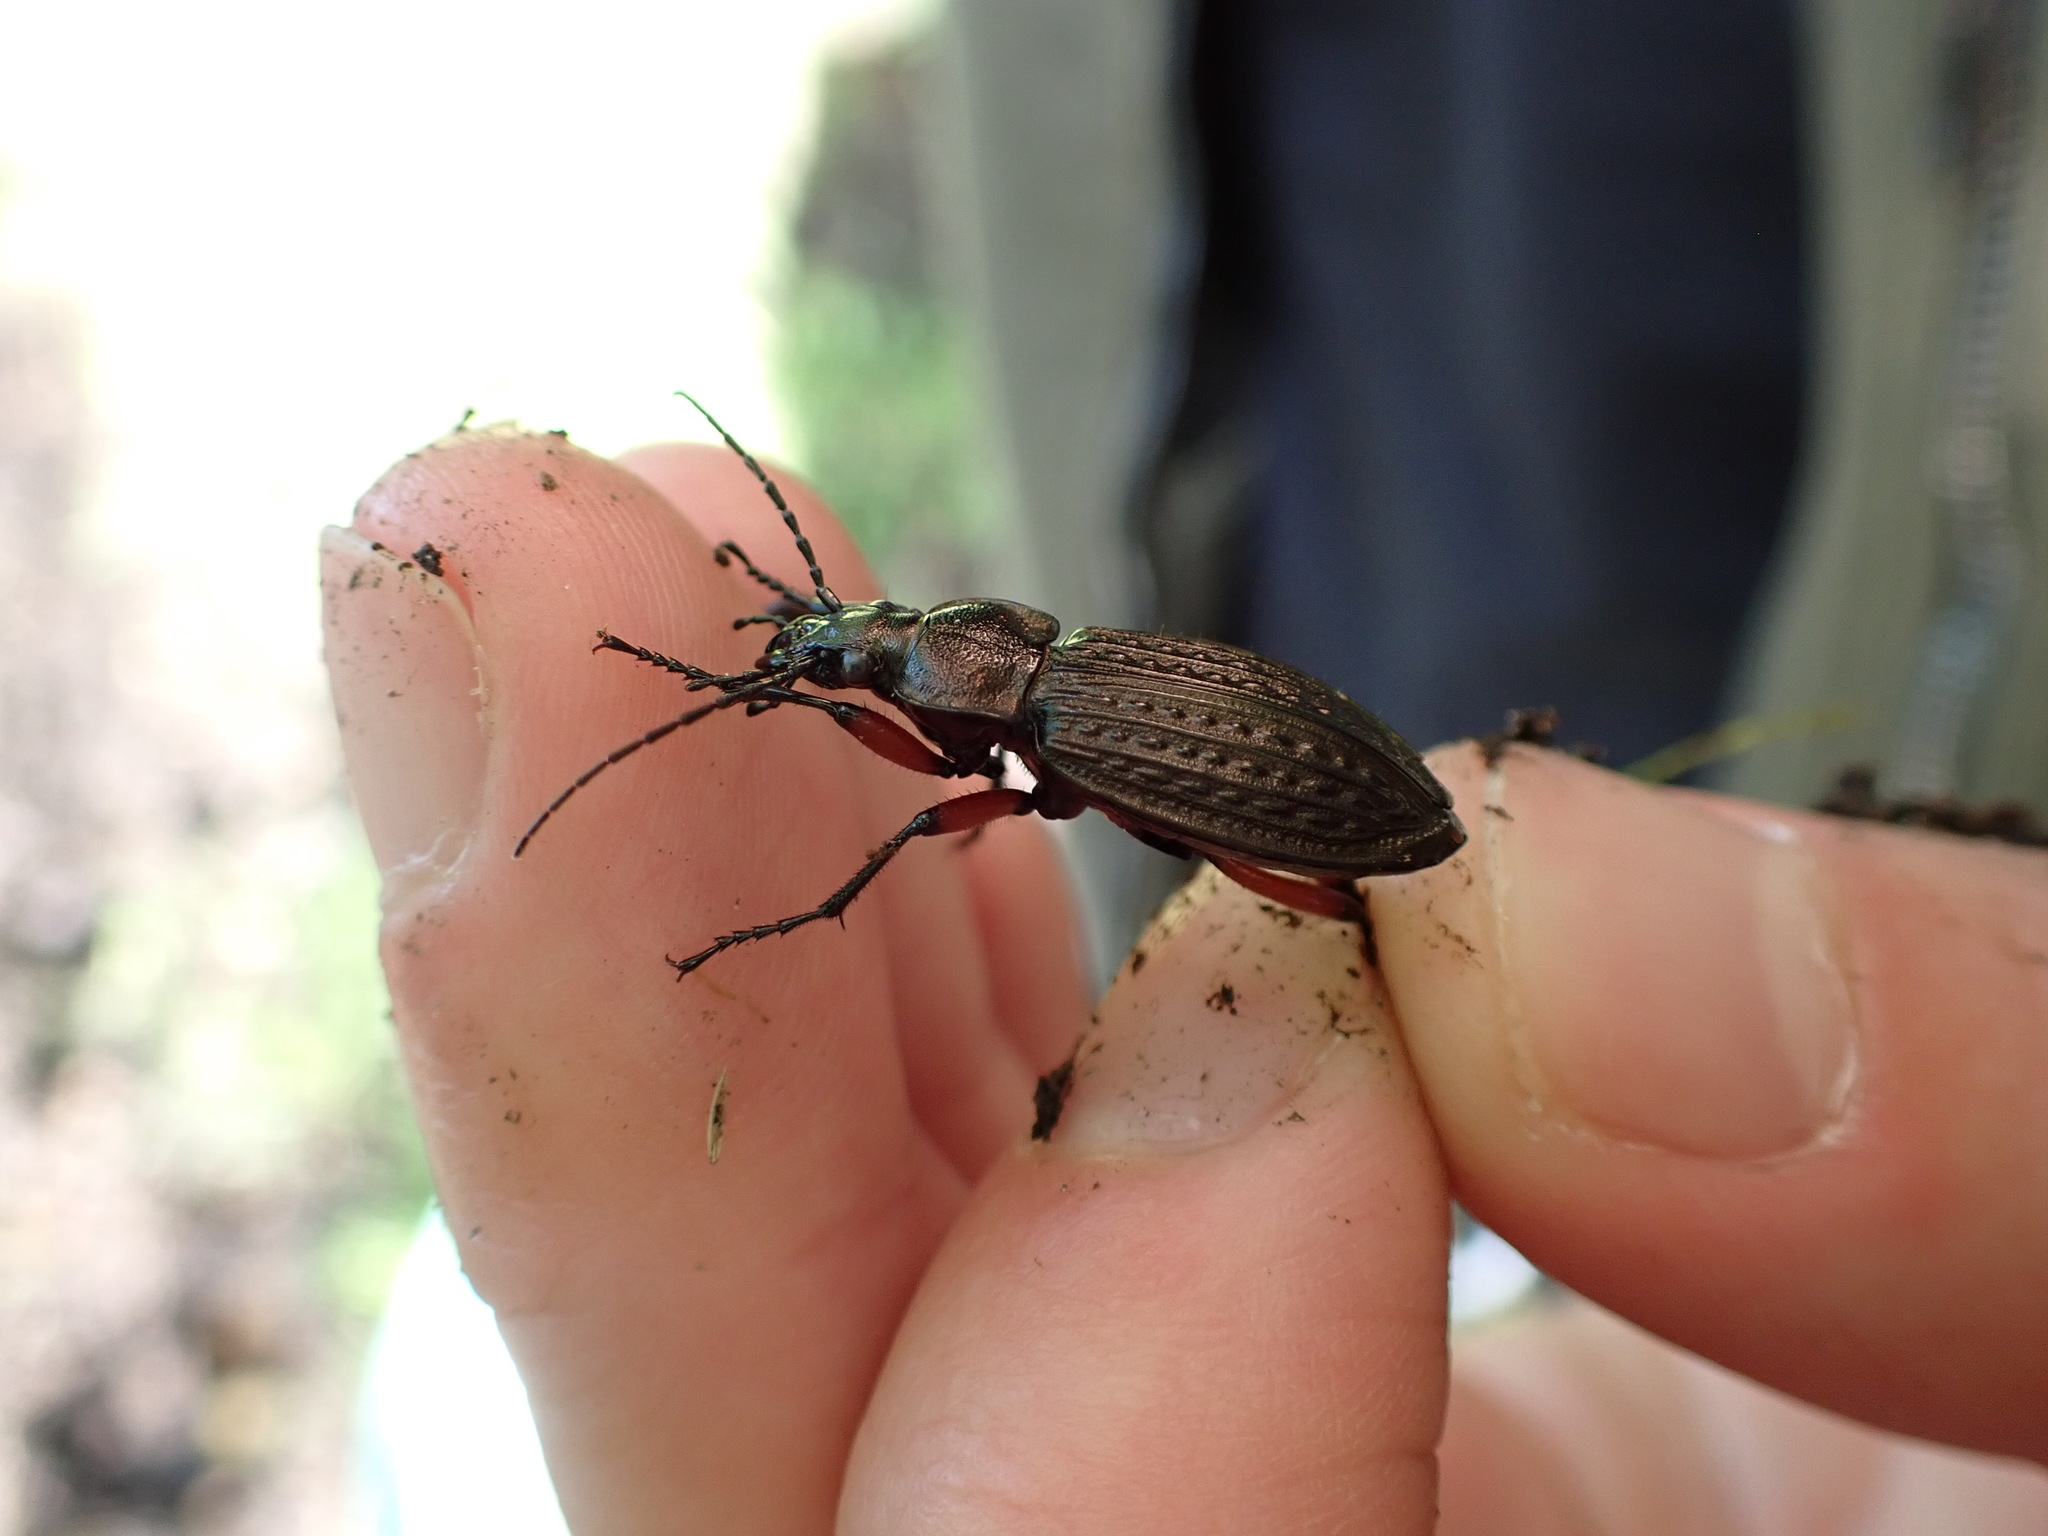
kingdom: Animalia
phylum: Arthropoda
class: Insecta
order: Coleoptera
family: Carabidae
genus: Carabus
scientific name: Carabus granulatus
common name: Granulate ground beetle
